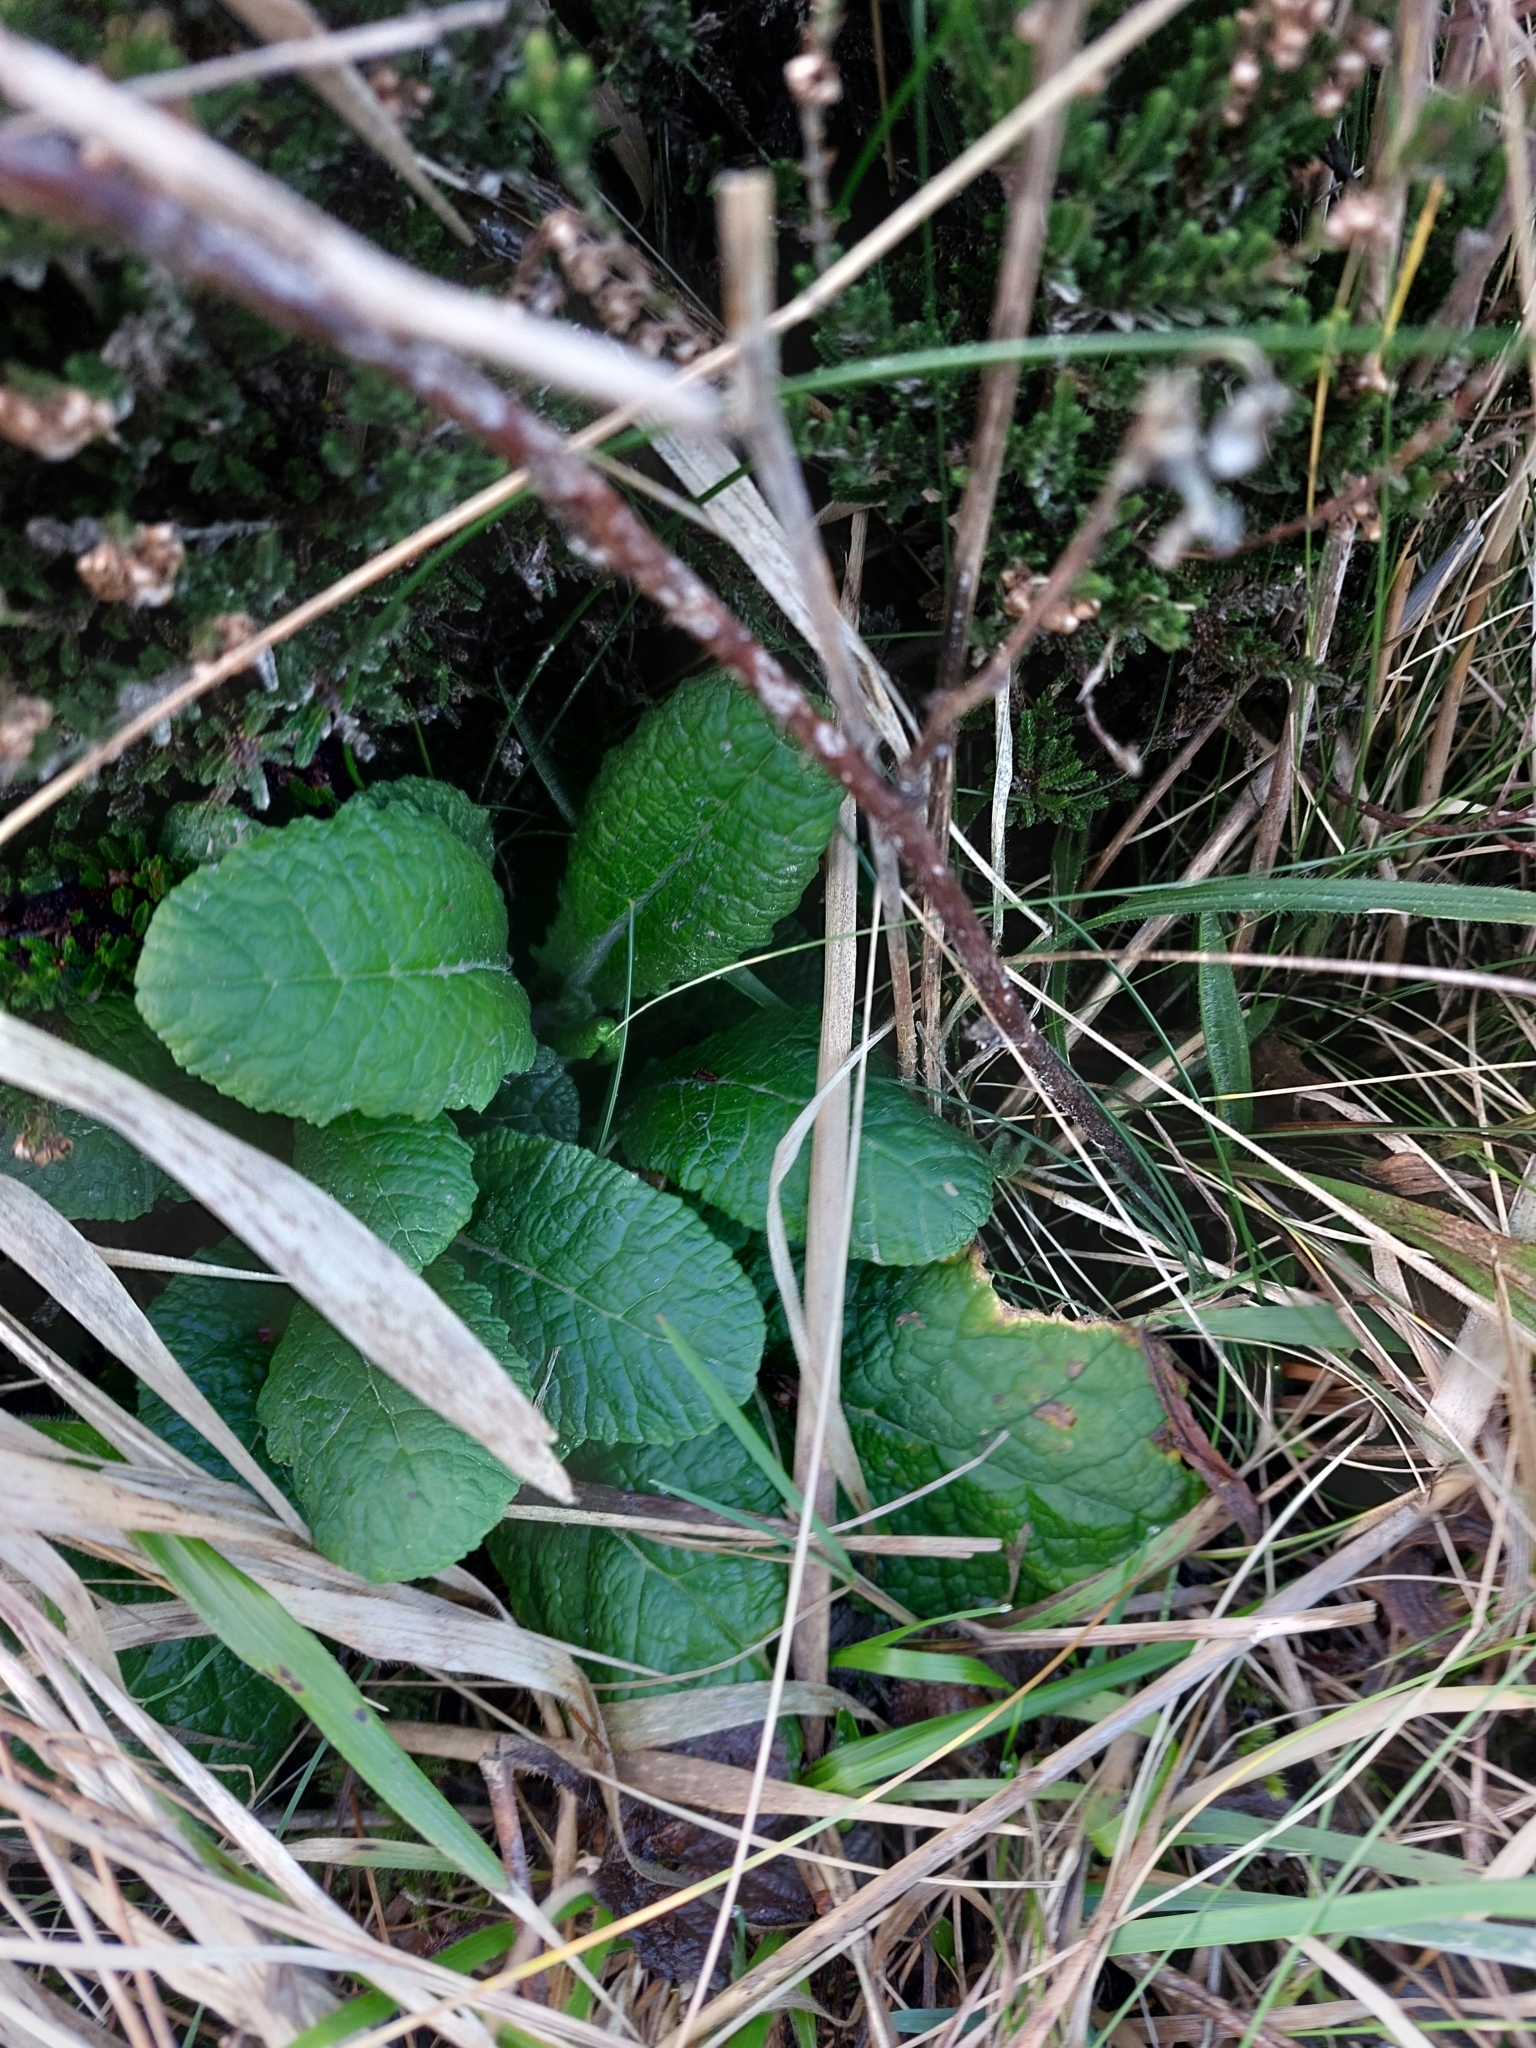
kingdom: Plantae
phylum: Tracheophyta
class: Magnoliopsida
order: Ericales
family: Primulaceae
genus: Primula
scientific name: Primula vulgaris
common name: Primrose
